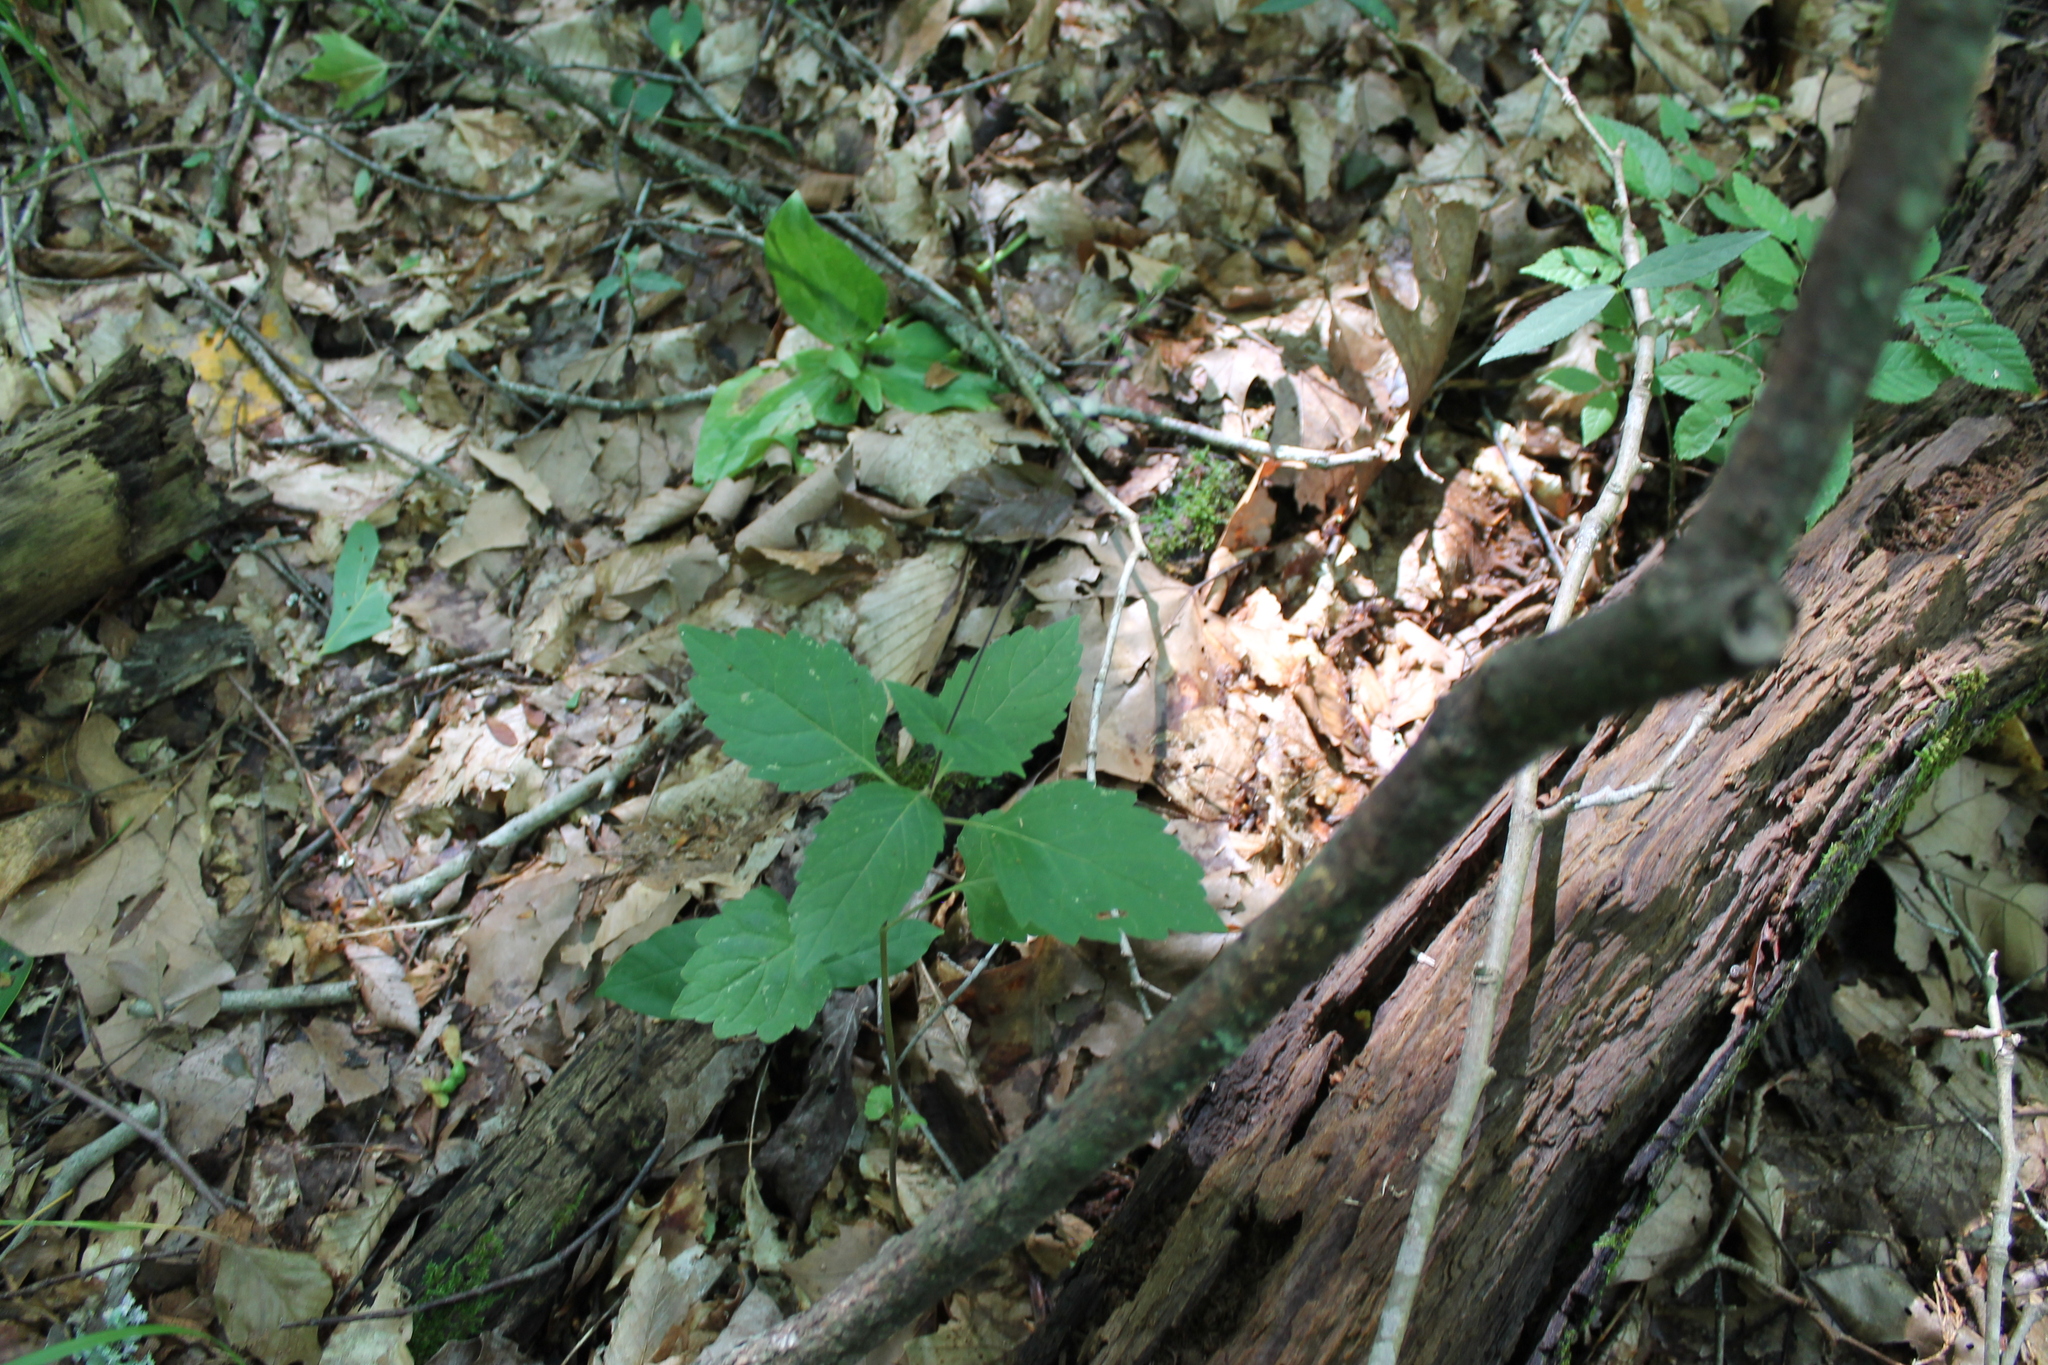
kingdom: Plantae
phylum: Tracheophyta
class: Magnoliopsida
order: Lamiales
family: Phrymaceae
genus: Phryma
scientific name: Phryma leptostachya
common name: American lopseed
